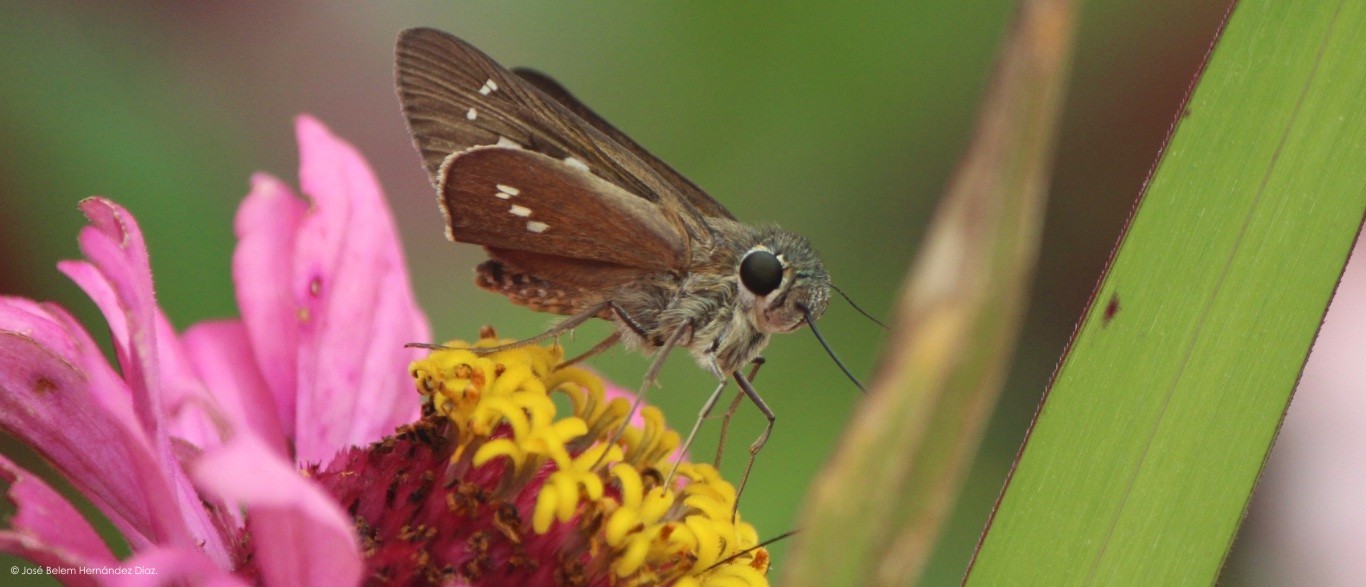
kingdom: Animalia
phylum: Arthropoda
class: Insecta
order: Lepidoptera
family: Hesperiidae
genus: Calpodes
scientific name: Calpodes ethlius
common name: Brazilian skipper
